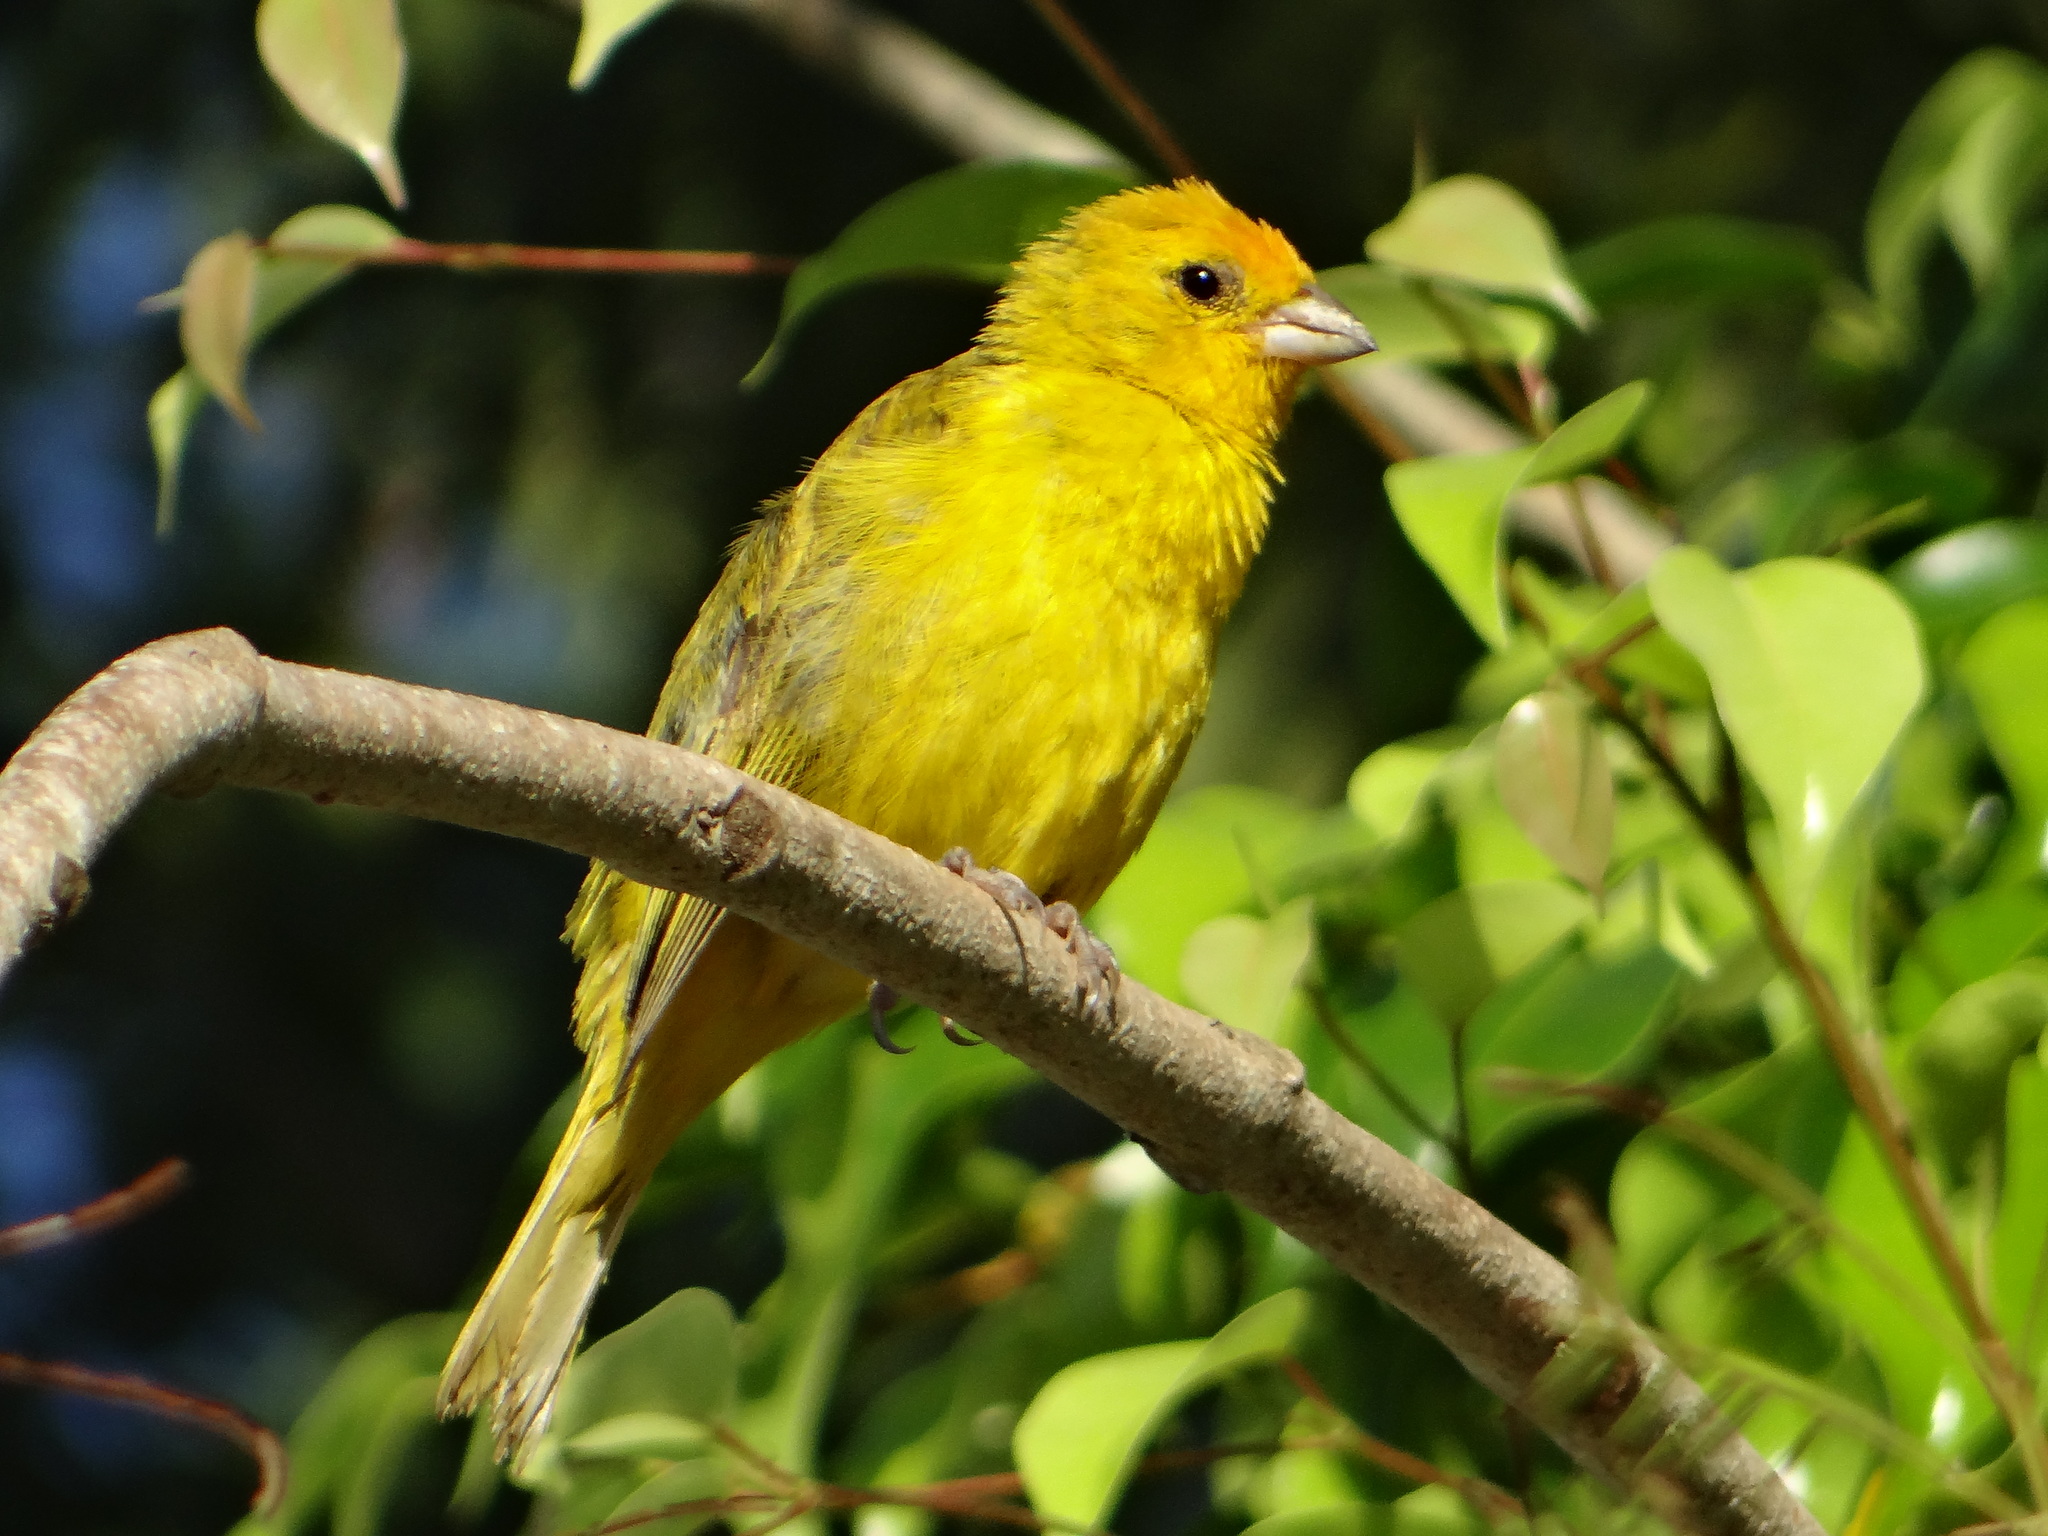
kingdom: Animalia
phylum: Chordata
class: Aves
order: Passeriformes
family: Thraupidae
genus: Sicalis
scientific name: Sicalis flaveola
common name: Saffron finch
